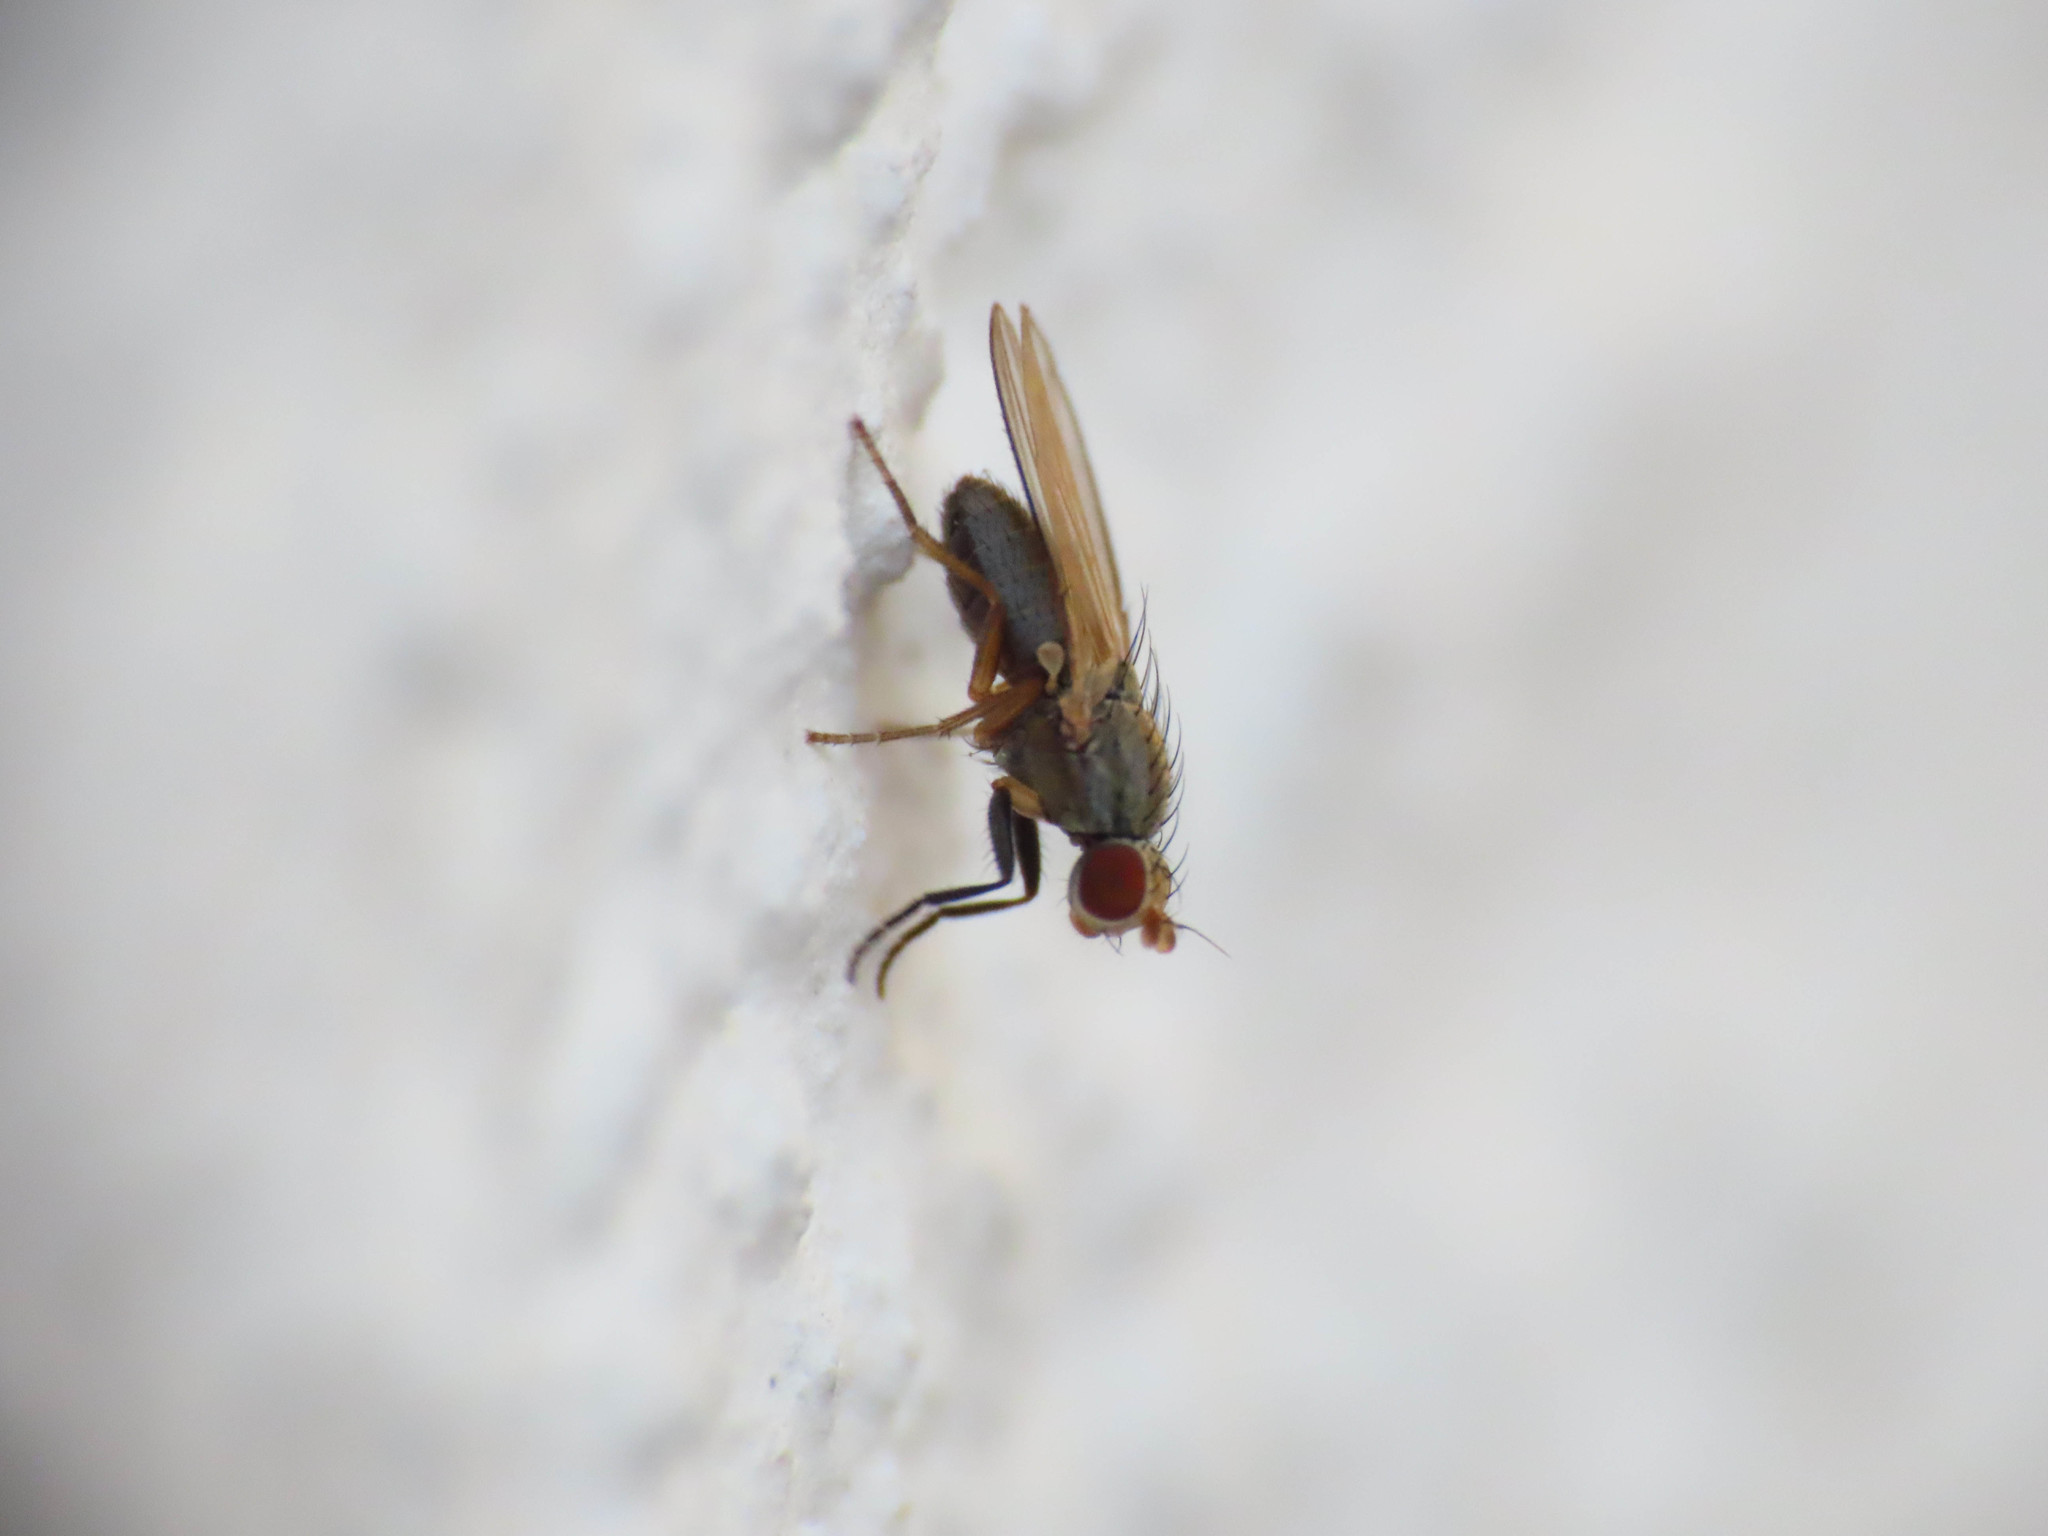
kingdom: Animalia
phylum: Arthropoda
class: Insecta
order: Diptera
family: Heleomyzidae
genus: Trixoscelis
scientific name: Trixoscelis frontalis
